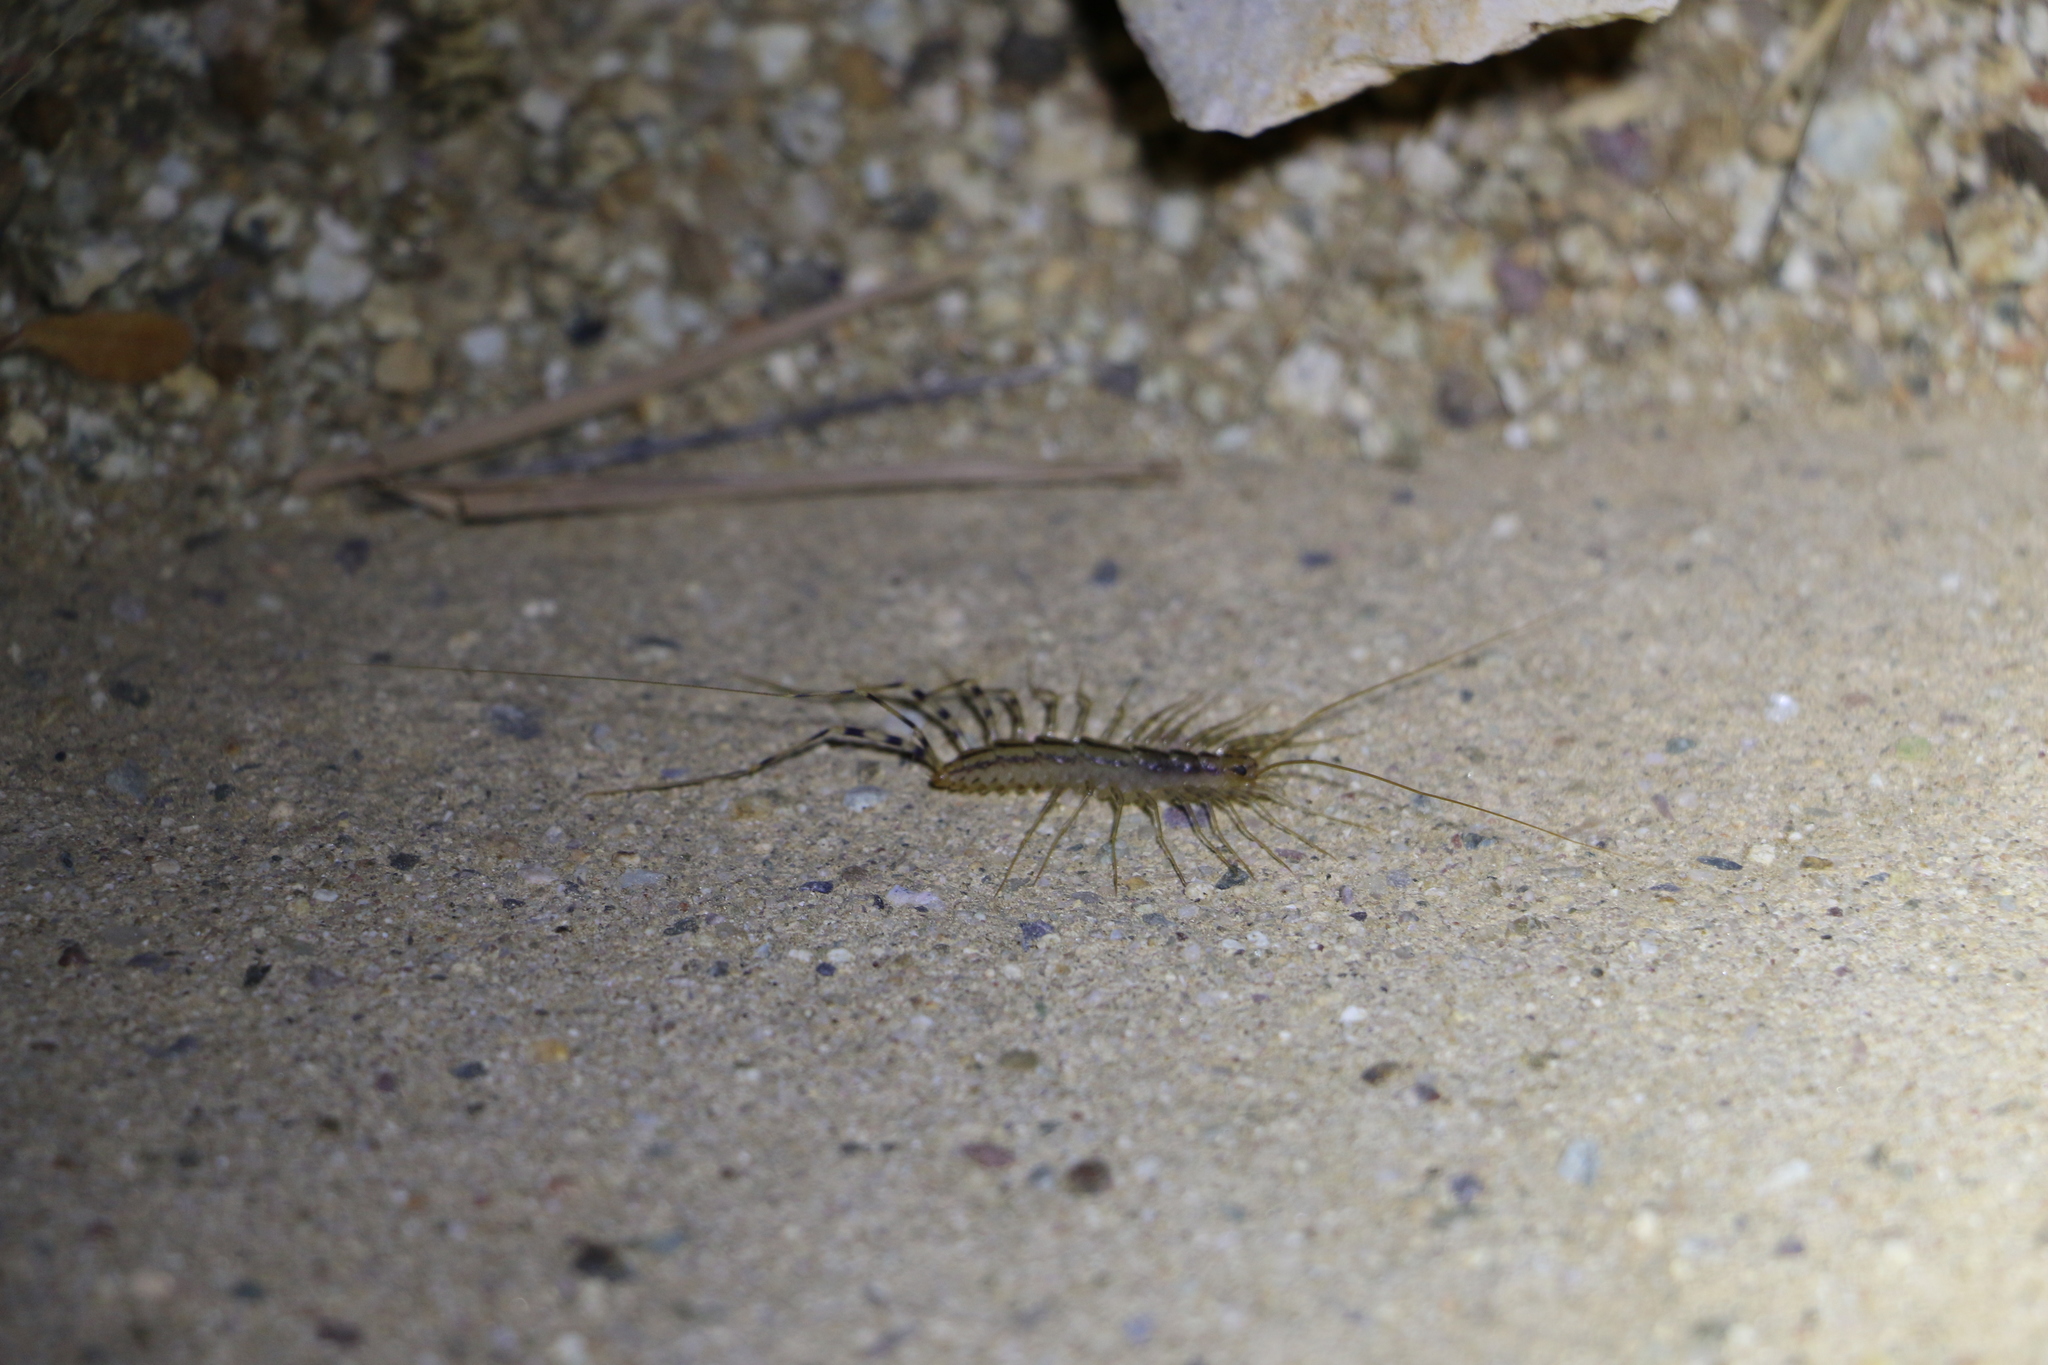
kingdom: Animalia
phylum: Arthropoda
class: Chilopoda
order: Scutigeromorpha
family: Scutigeridae
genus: Scutigera
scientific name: Scutigera coleoptrata
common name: House centipede
